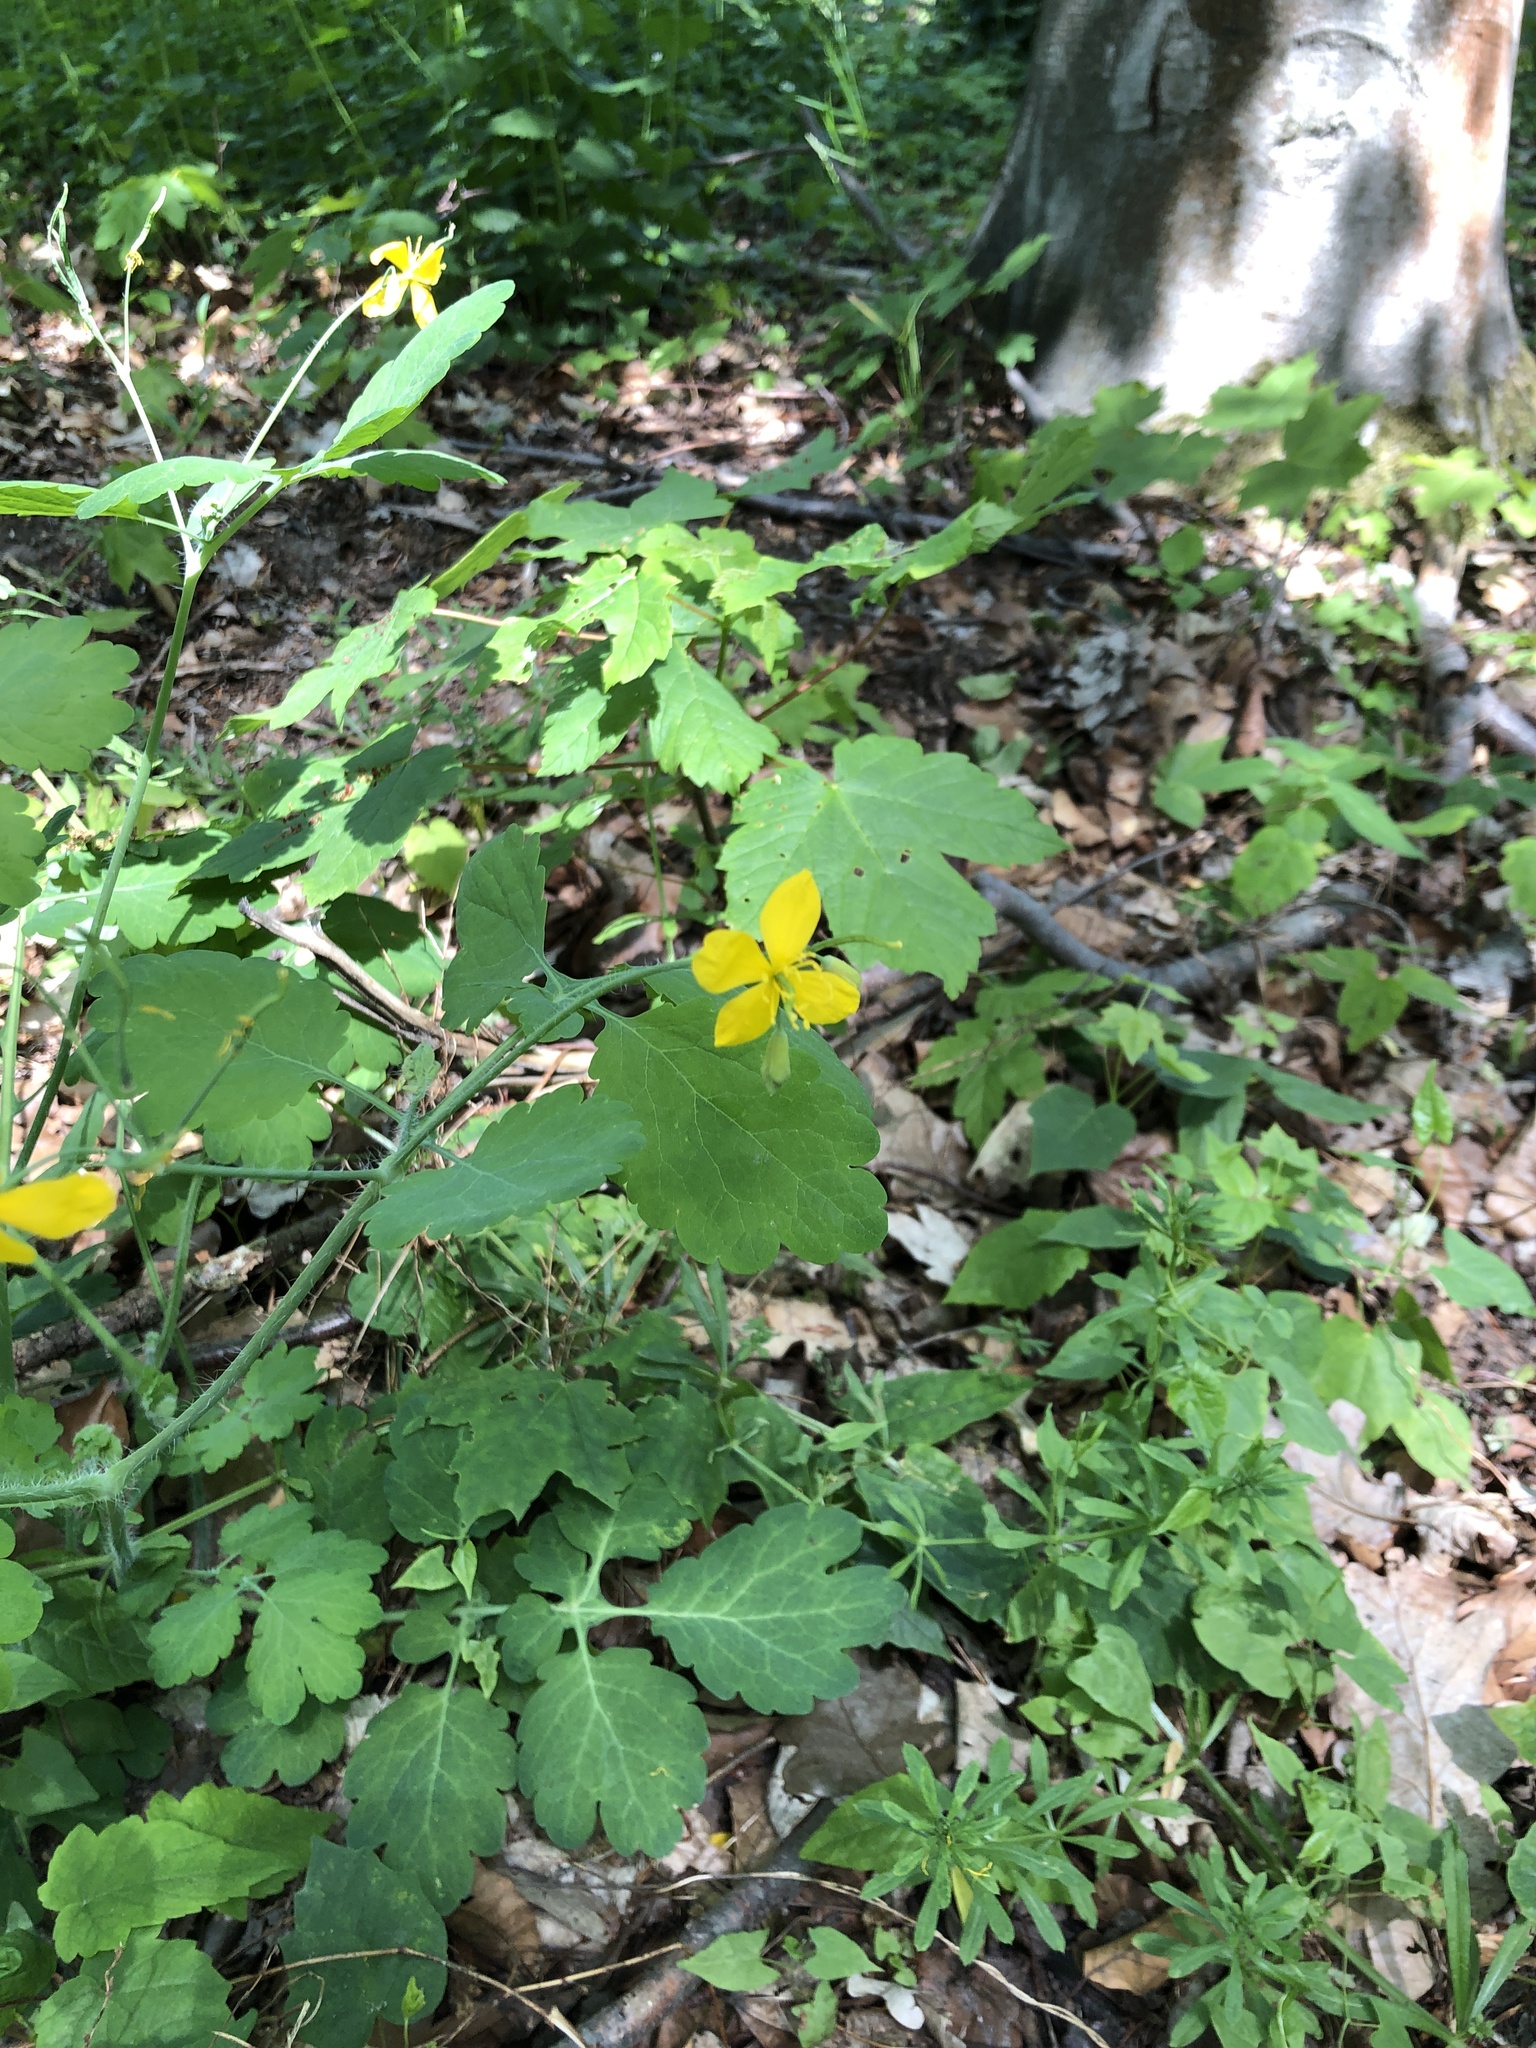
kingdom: Plantae
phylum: Tracheophyta
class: Magnoliopsida
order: Ranunculales
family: Papaveraceae
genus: Chelidonium
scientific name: Chelidonium majus
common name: Greater celandine
